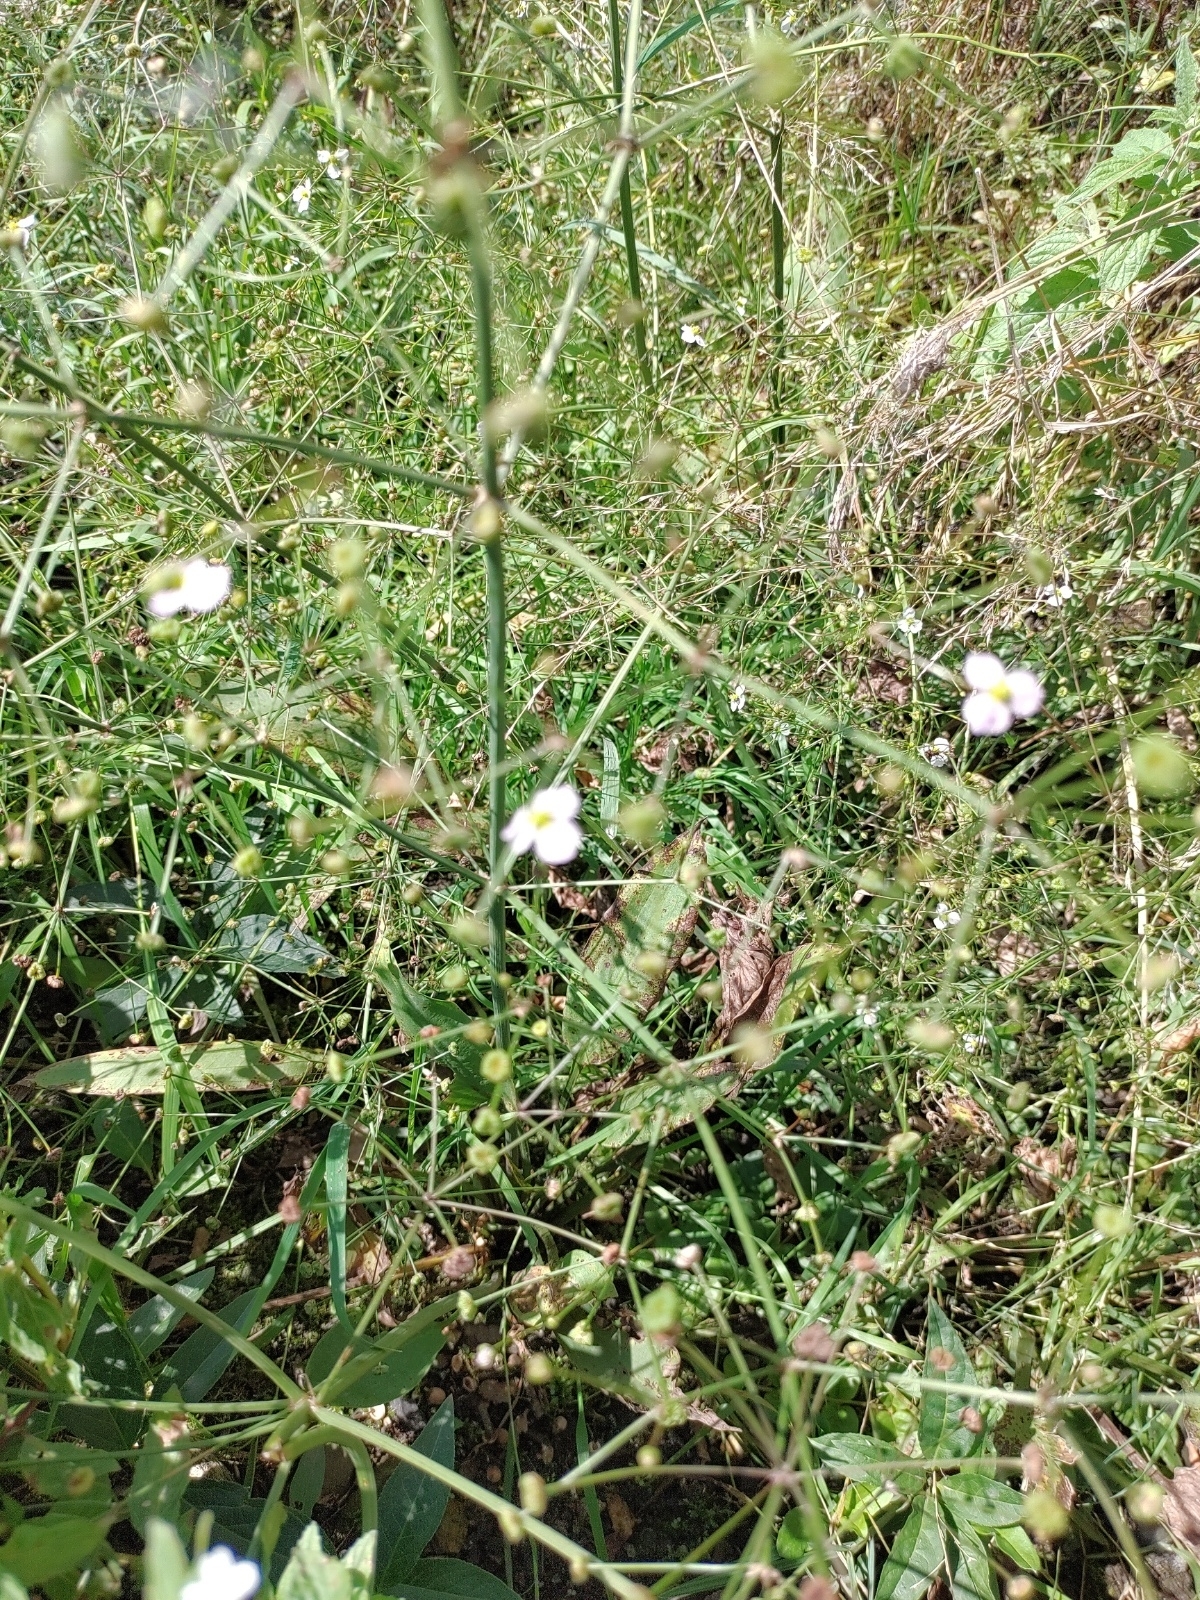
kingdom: Plantae
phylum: Tracheophyta
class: Liliopsida
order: Alismatales
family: Alismataceae
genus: Alisma
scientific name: Alisma plantago-aquatica
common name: Water-plantain
